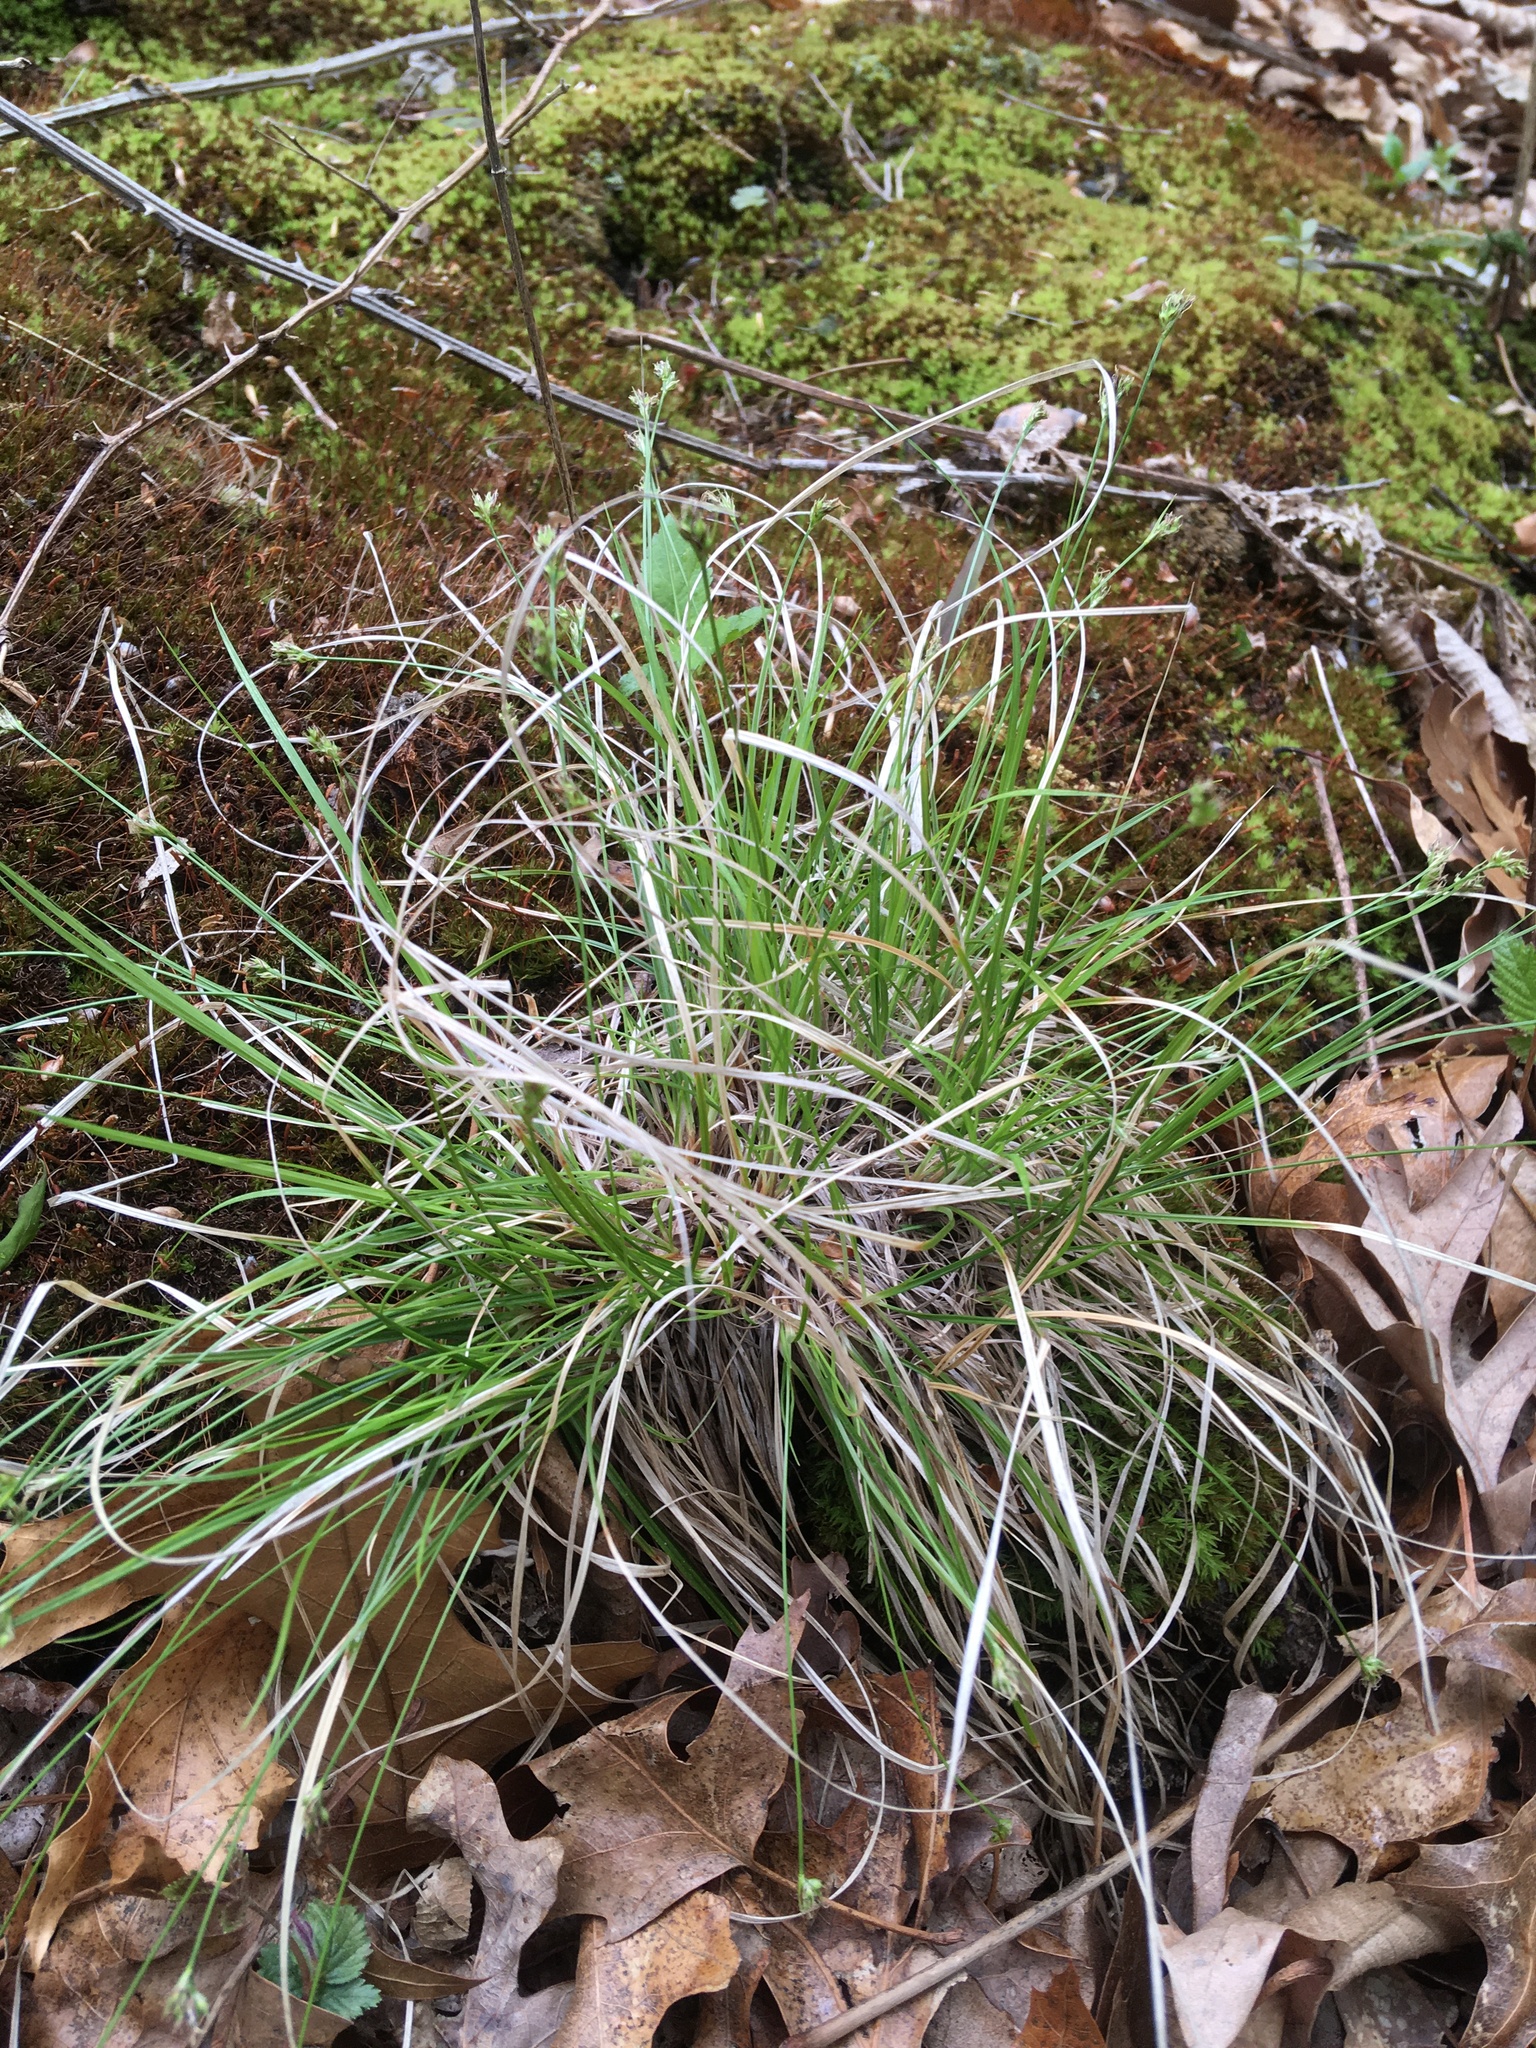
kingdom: Plantae
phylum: Tracheophyta
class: Liliopsida
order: Poales
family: Cyperaceae
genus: Carex
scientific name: Carex pensylvanica
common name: Common oak sedge
